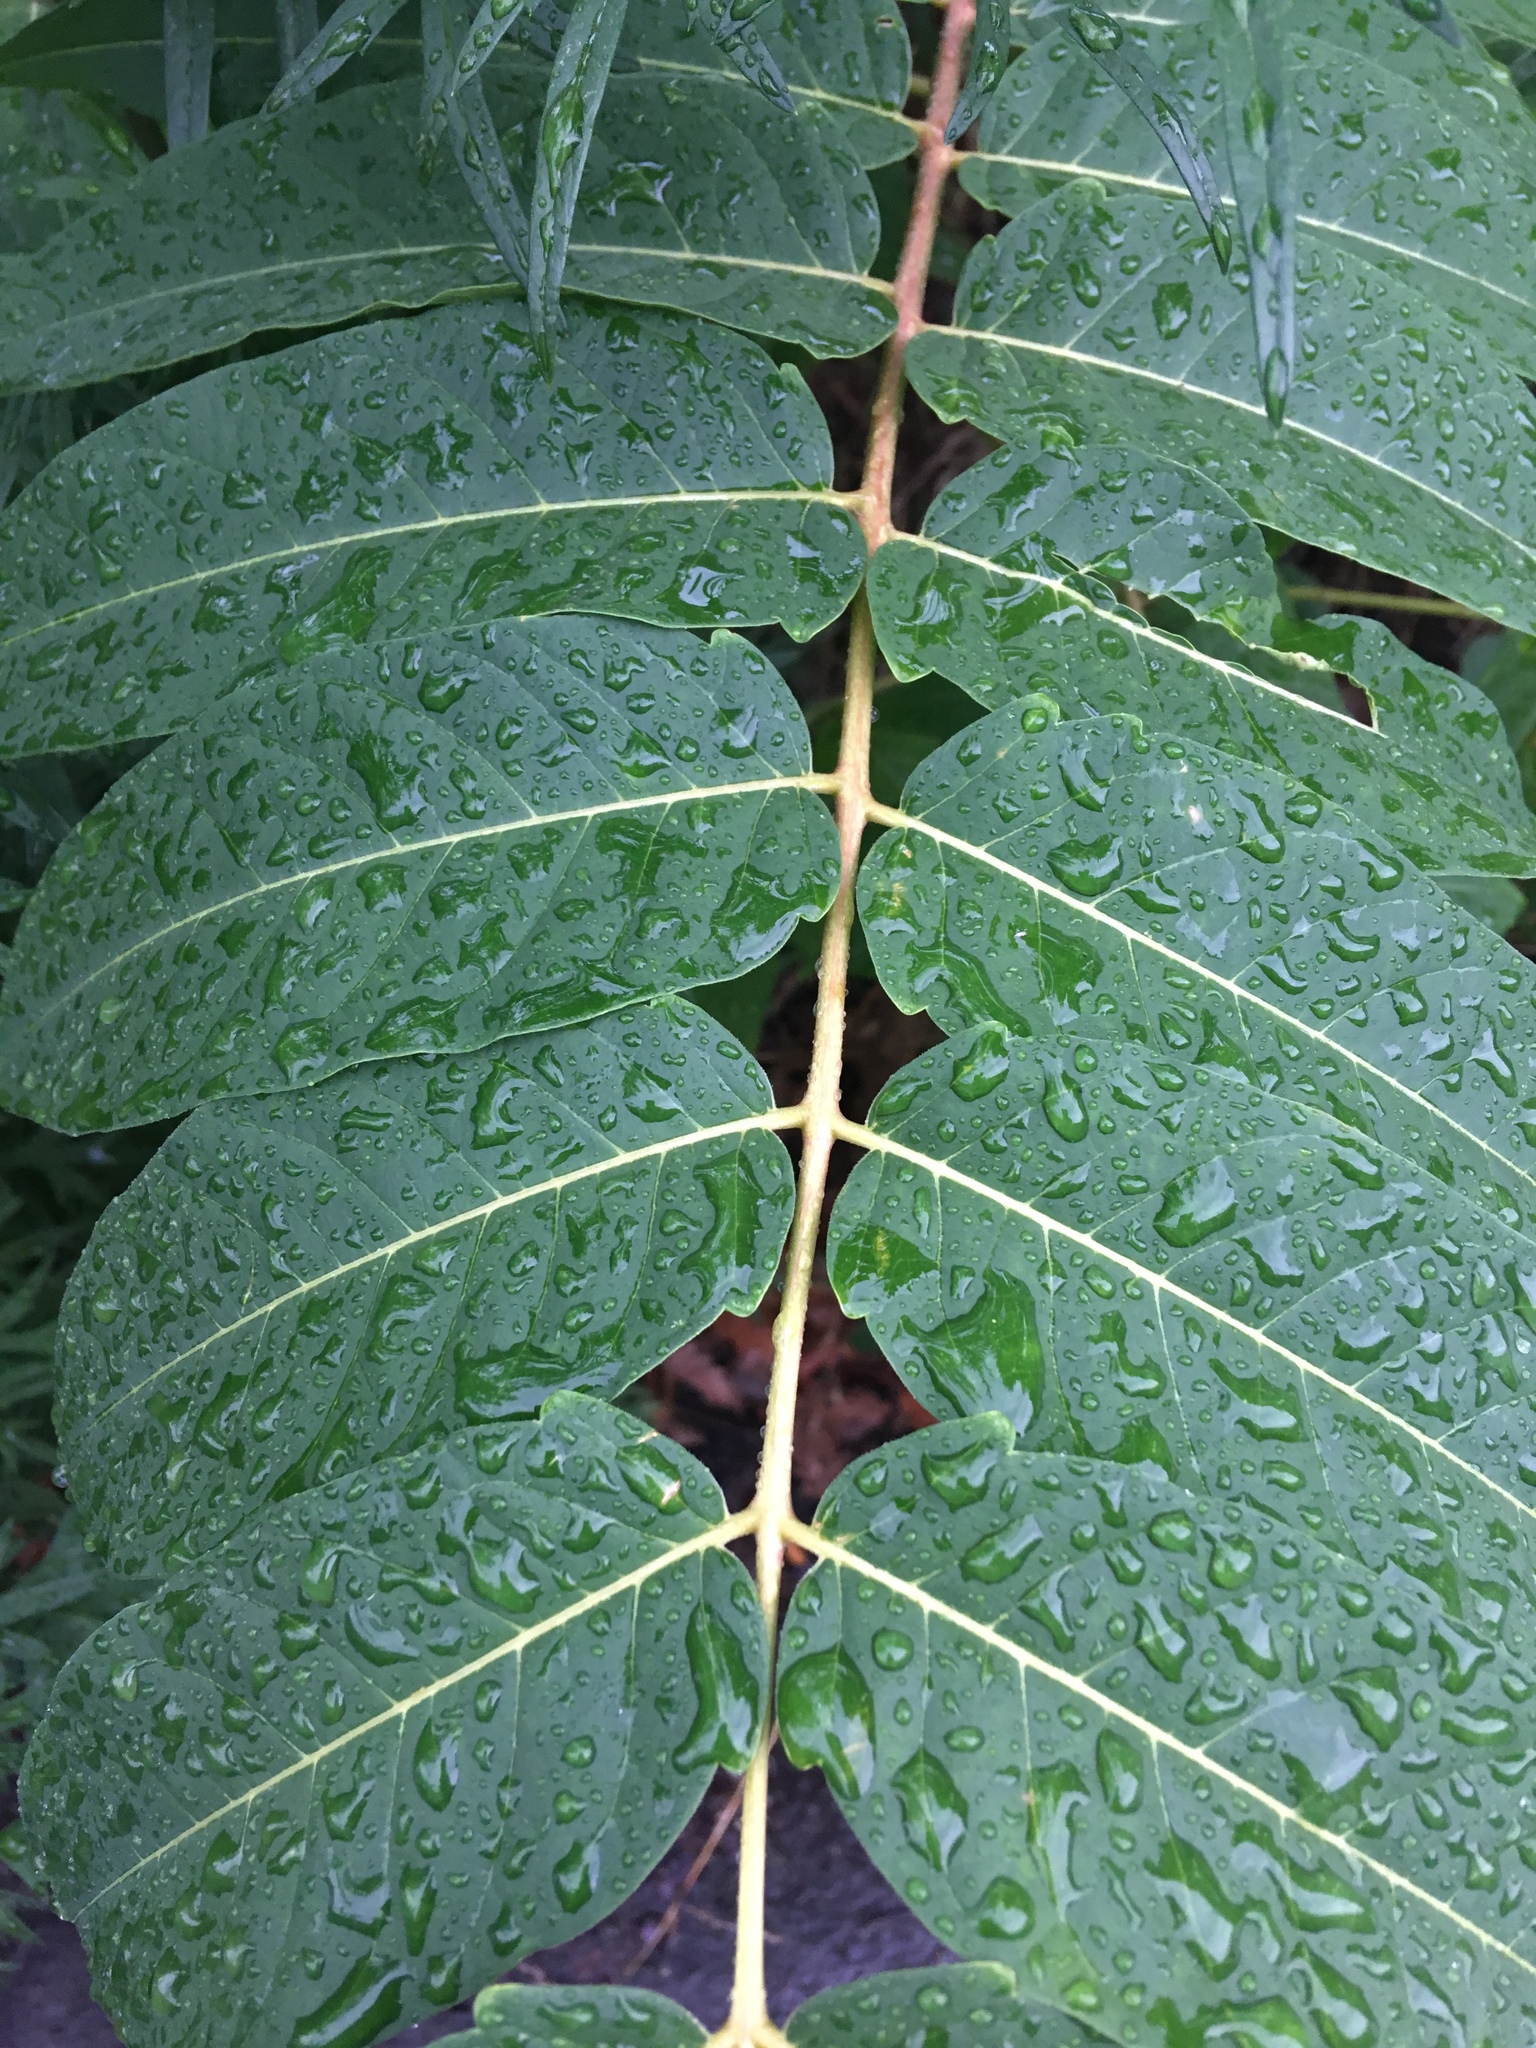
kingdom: Plantae
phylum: Tracheophyta
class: Magnoliopsida
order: Sapindales
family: Simaroubaceae
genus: Ailanthus
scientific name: Ailanthus altissima
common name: Tree-of-heaven
